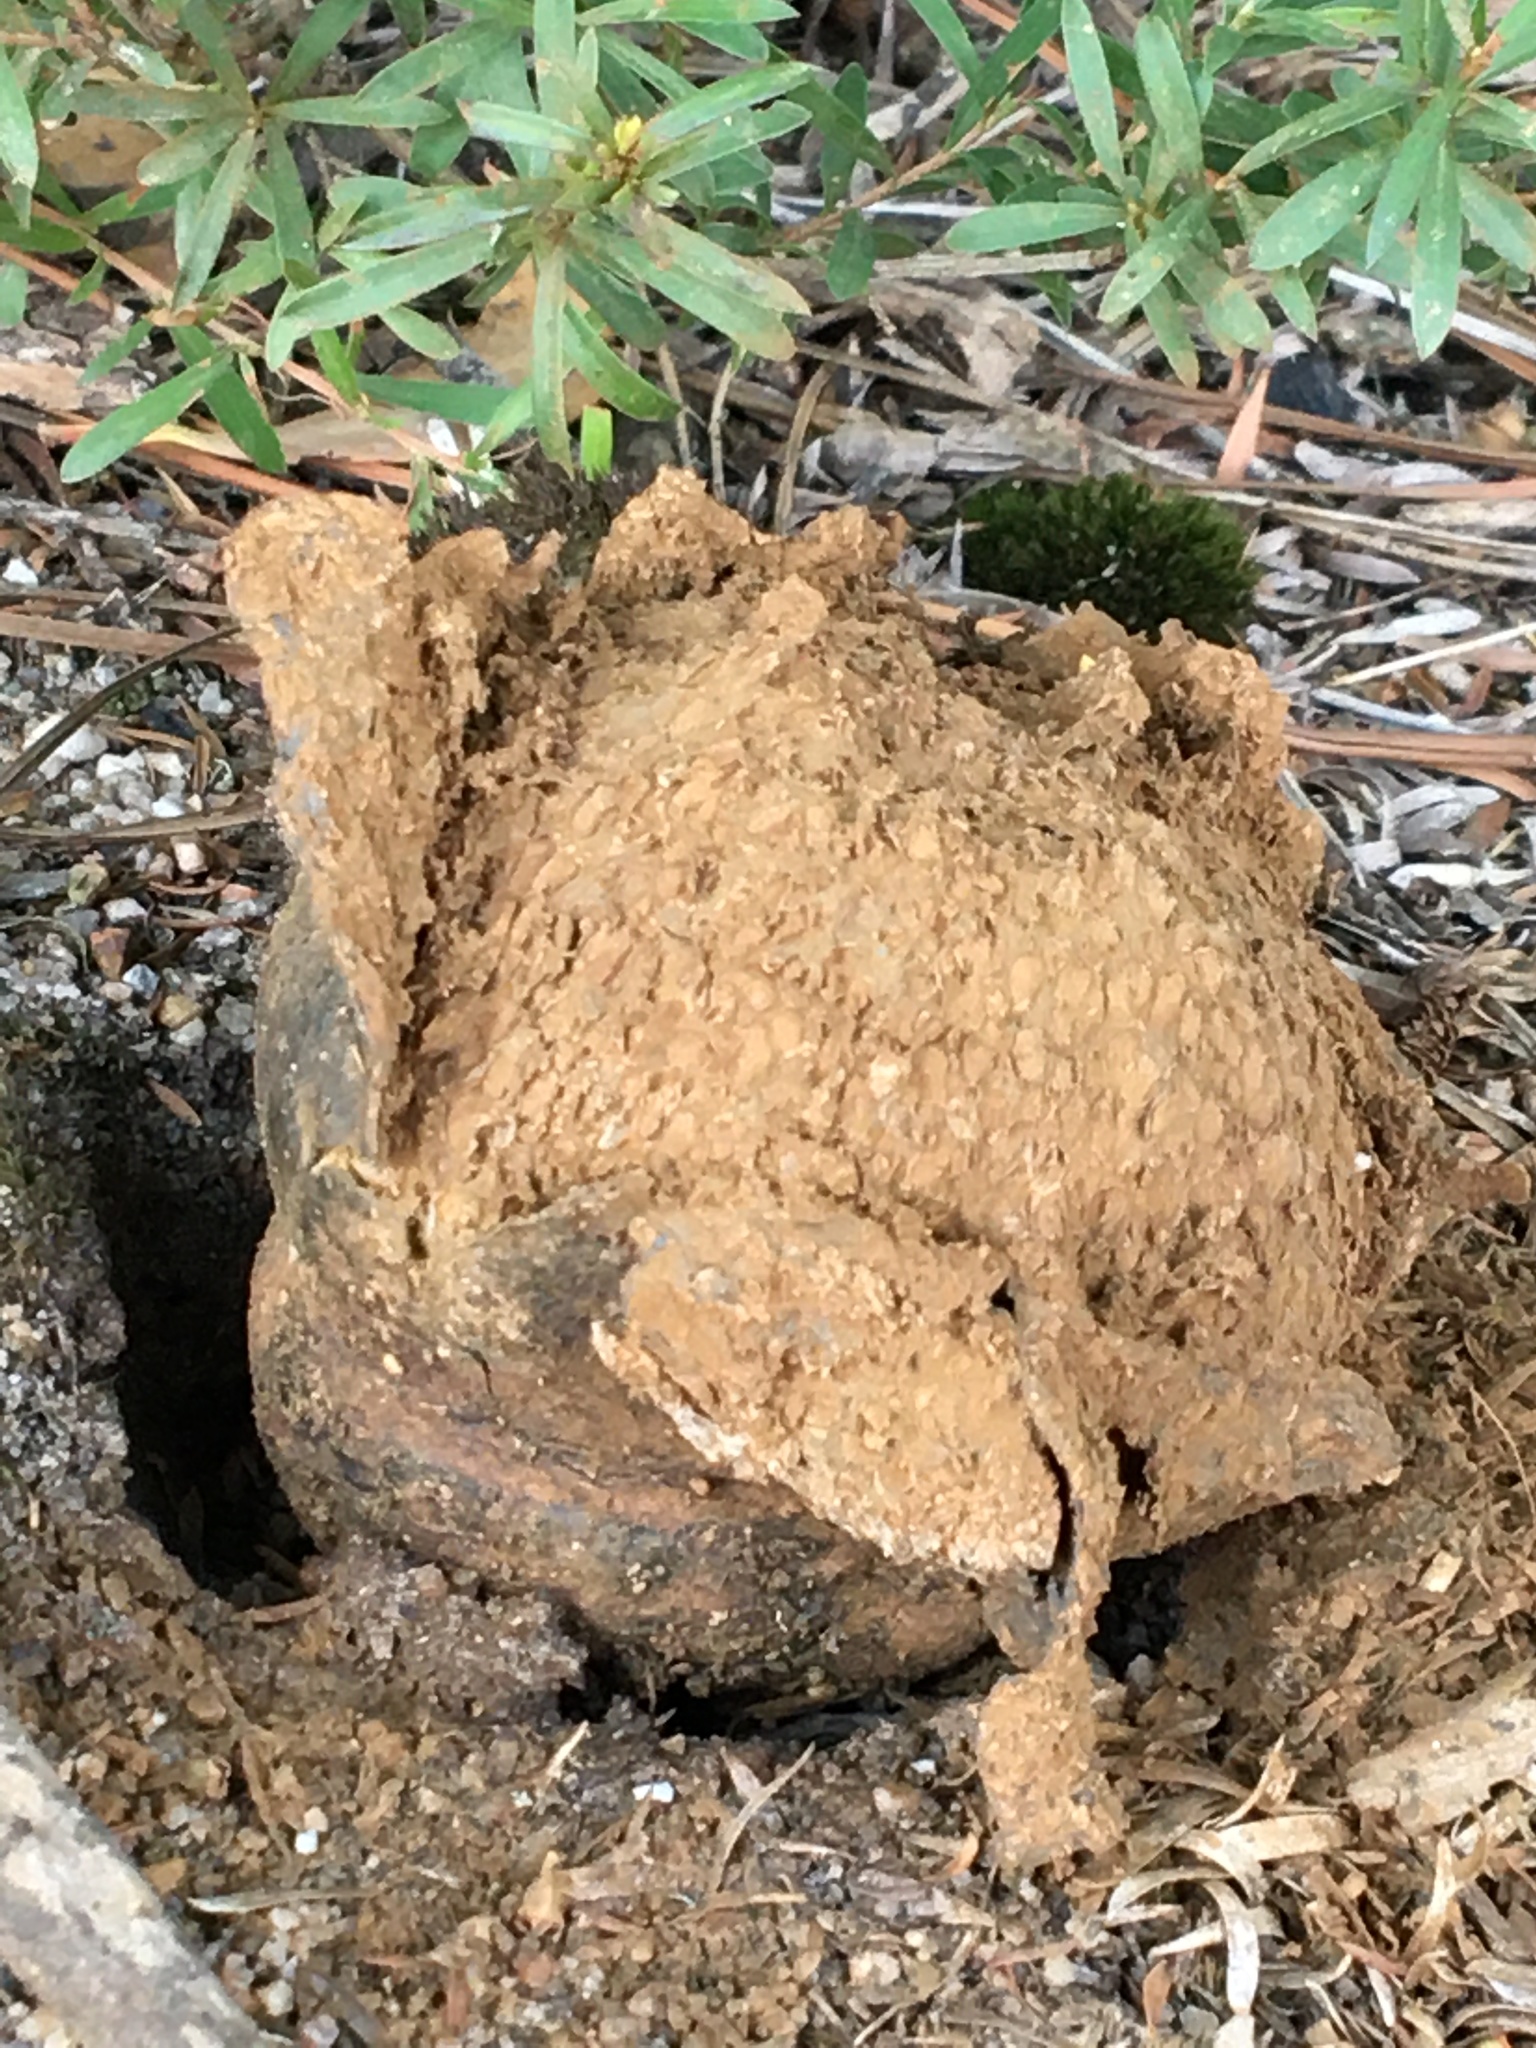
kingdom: Fungi
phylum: Basidiomycota
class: Agaricomycetes
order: Boletales
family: Sclerodermataceae
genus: Pisolithus
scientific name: Pisolithus arhizus
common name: Dyeball
